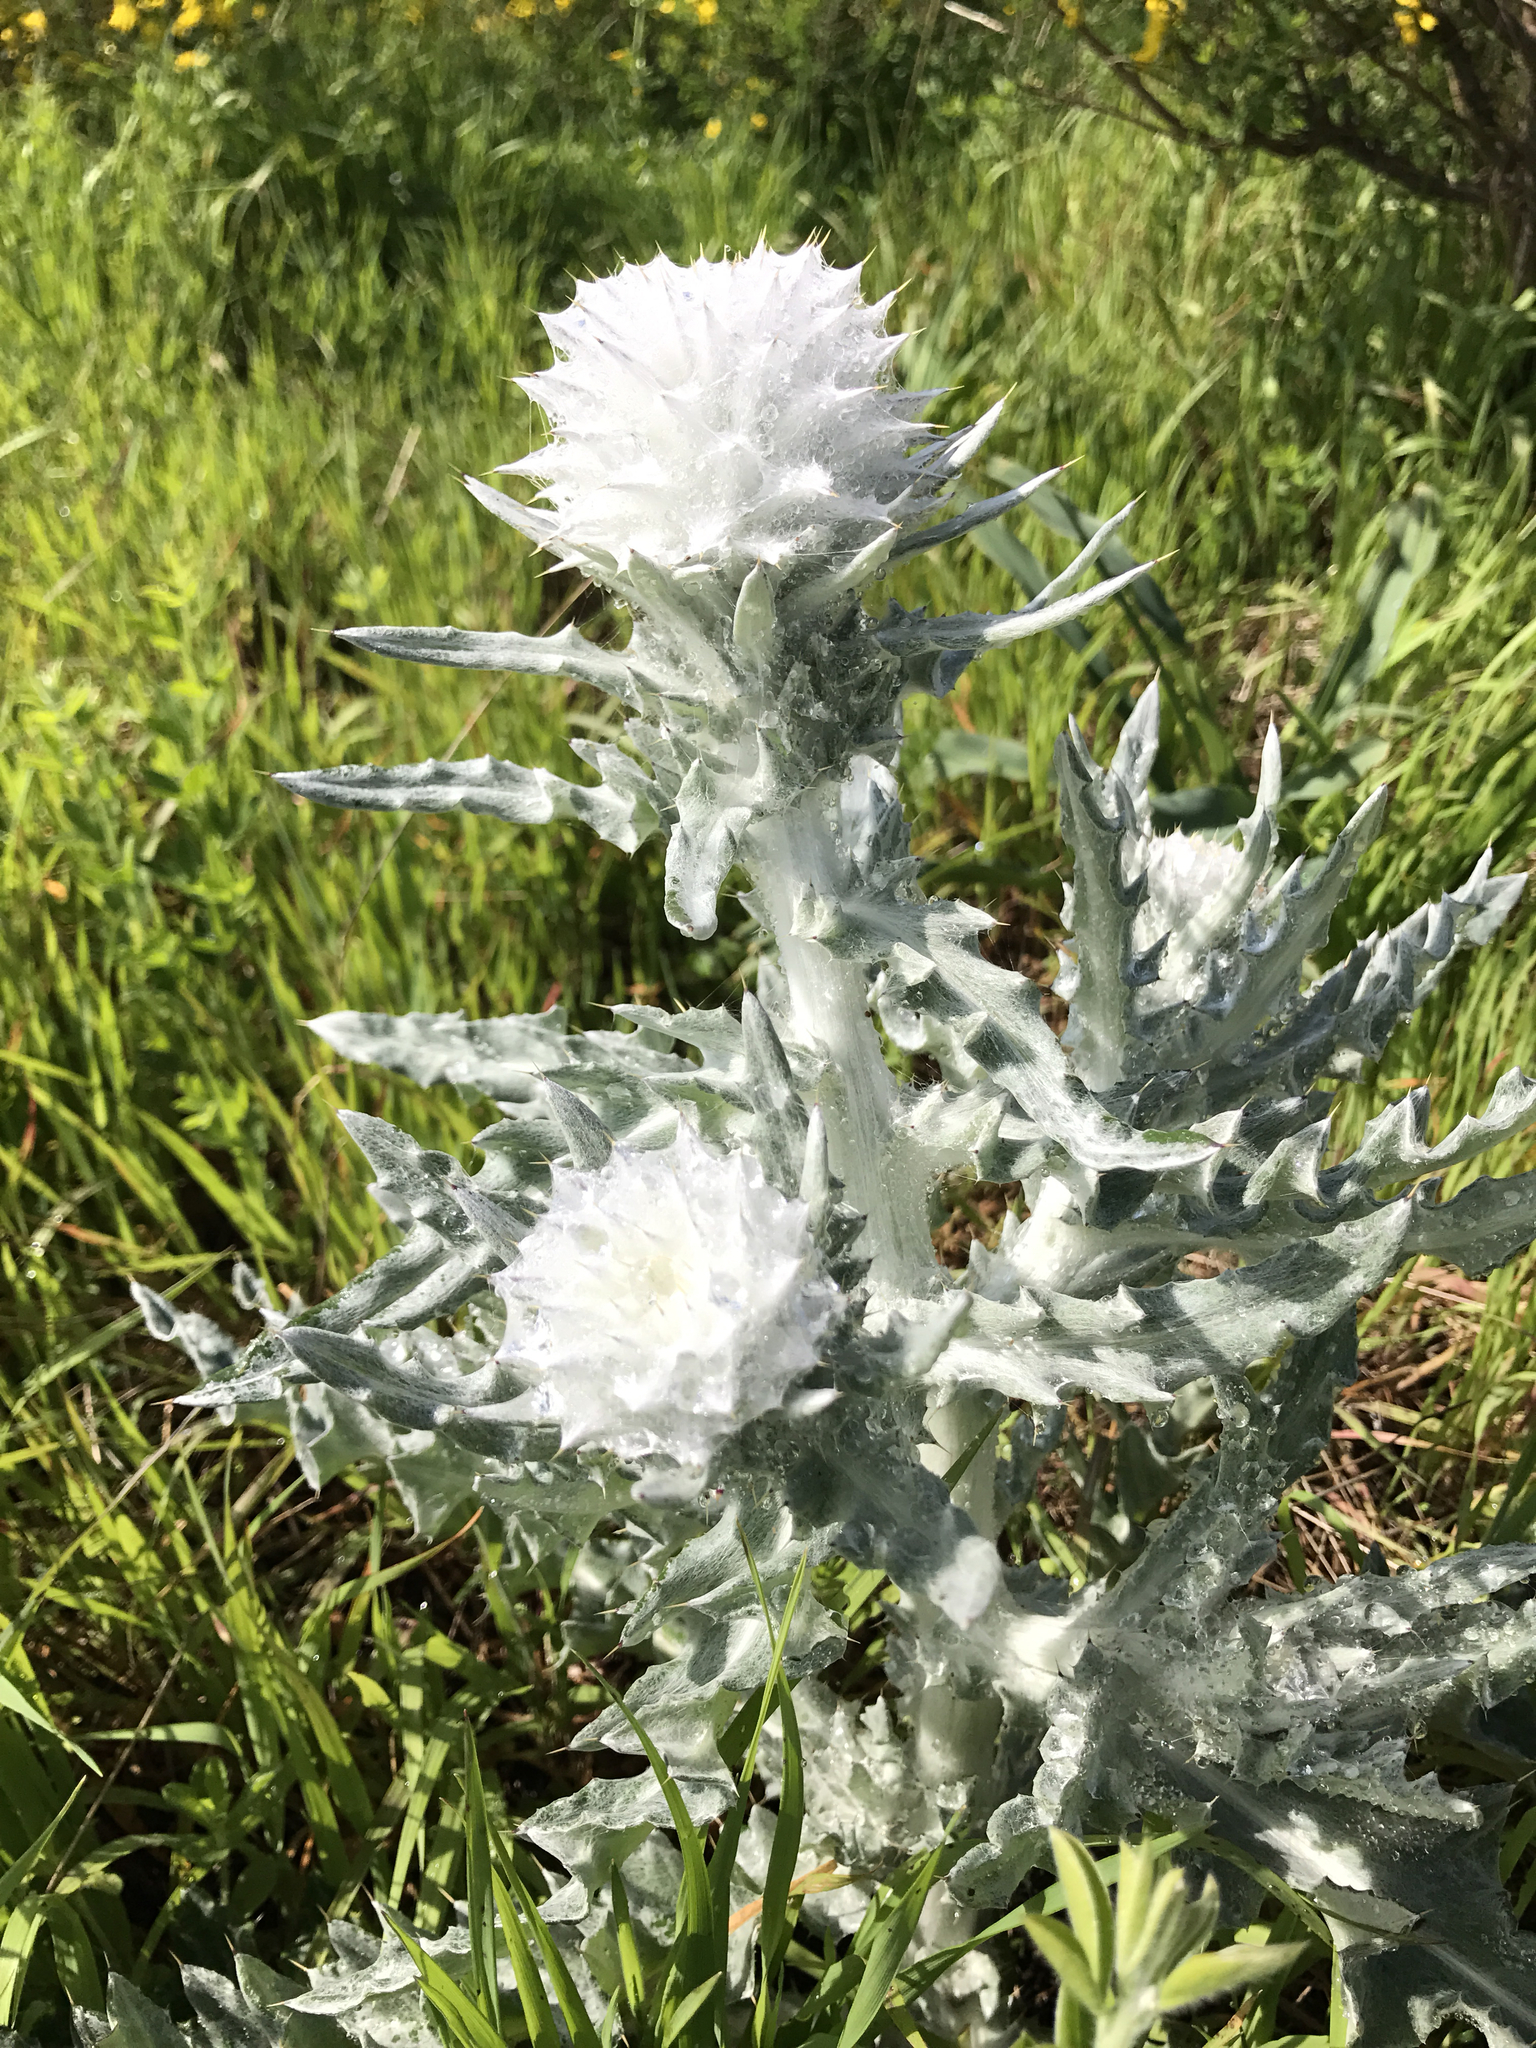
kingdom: Plantae
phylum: Tracheophyta
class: Magnoliopsida
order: Asterales
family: Asteraceae
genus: Cirsium
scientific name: Cirsium occidentale
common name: Western thistle
